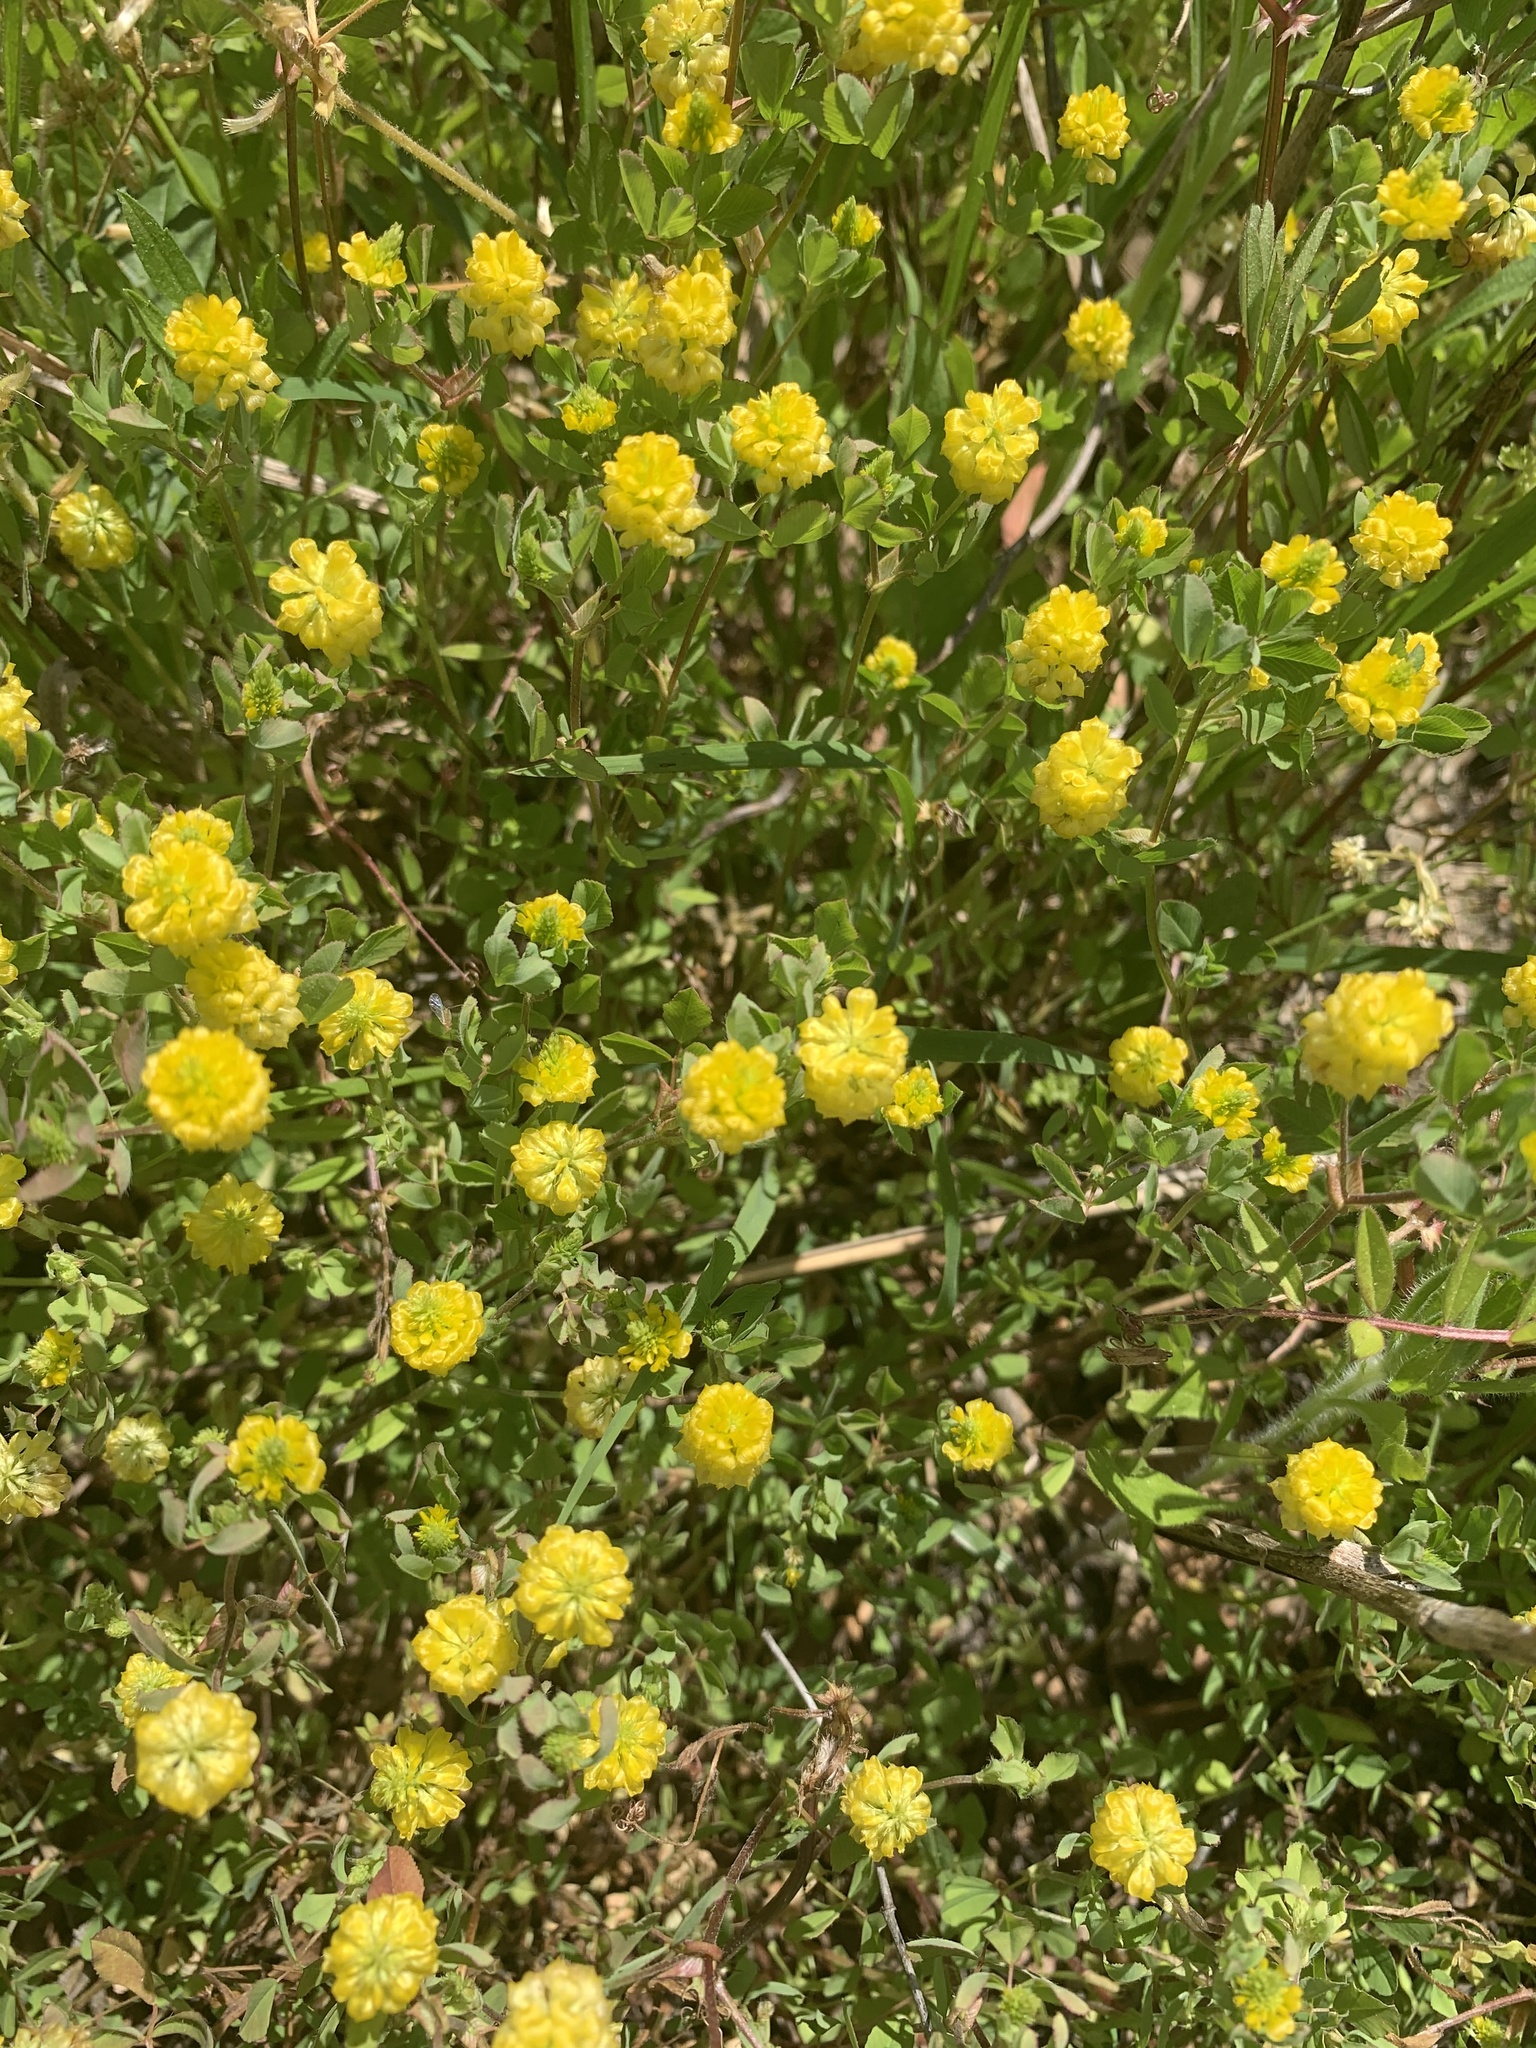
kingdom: Plantae
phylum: Tracheophyta
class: Magnoliopsida
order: Fabales
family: Fabaceae
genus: Trifolium
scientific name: Trifolium campestre
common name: Field clover
